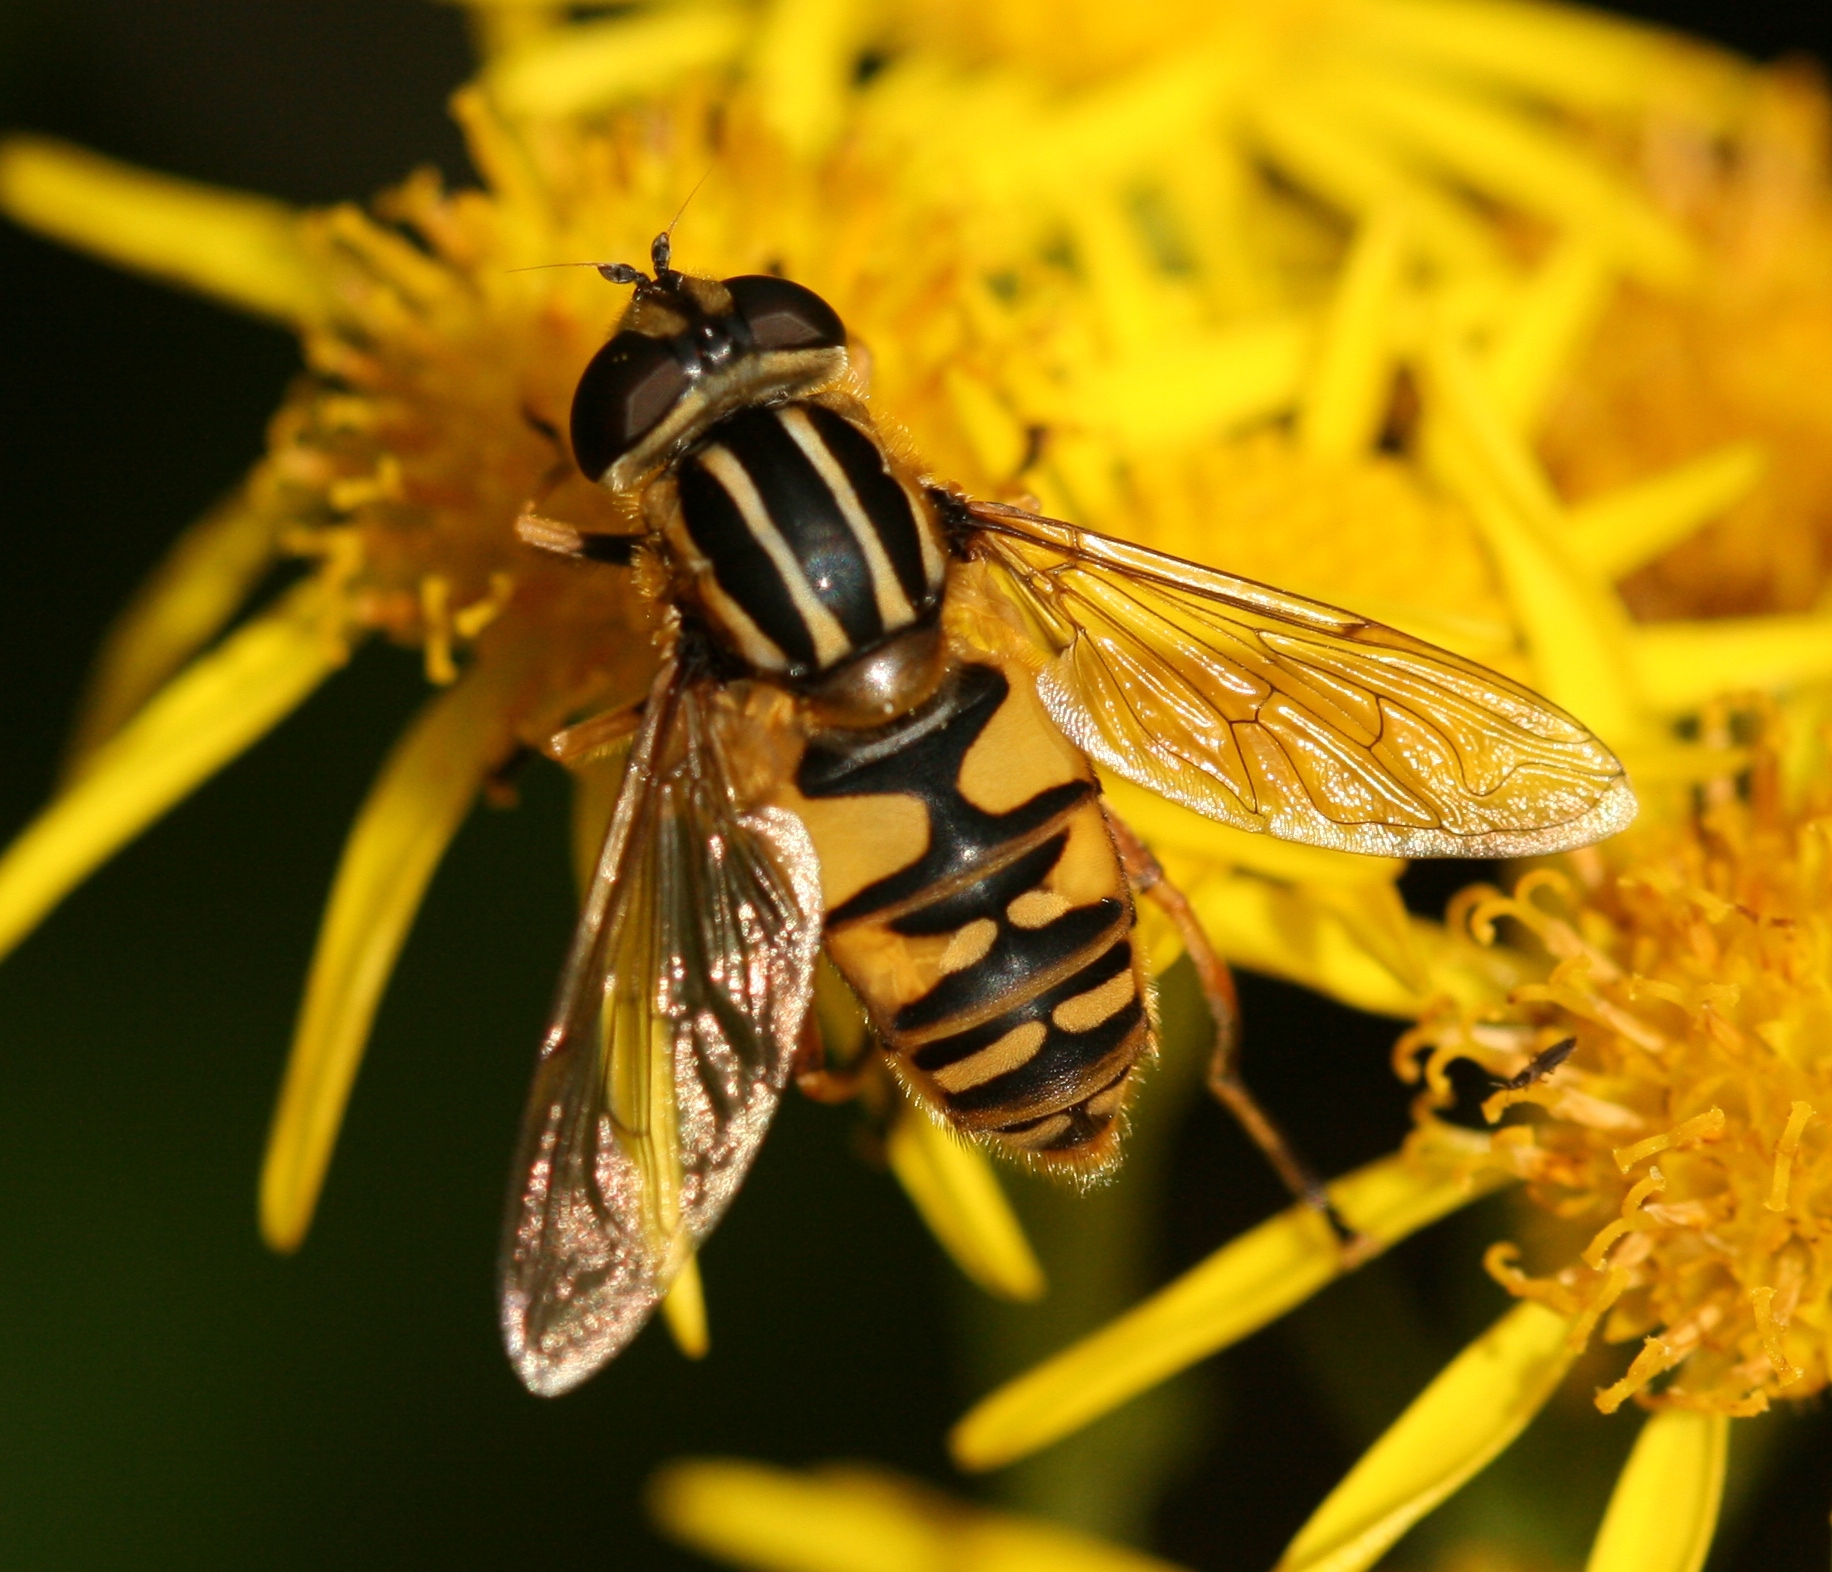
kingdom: Animalia
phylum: Arthropoda
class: Insecta
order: Diptera
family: Syrphidae
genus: Helophilus
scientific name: Helophilus pendulus
